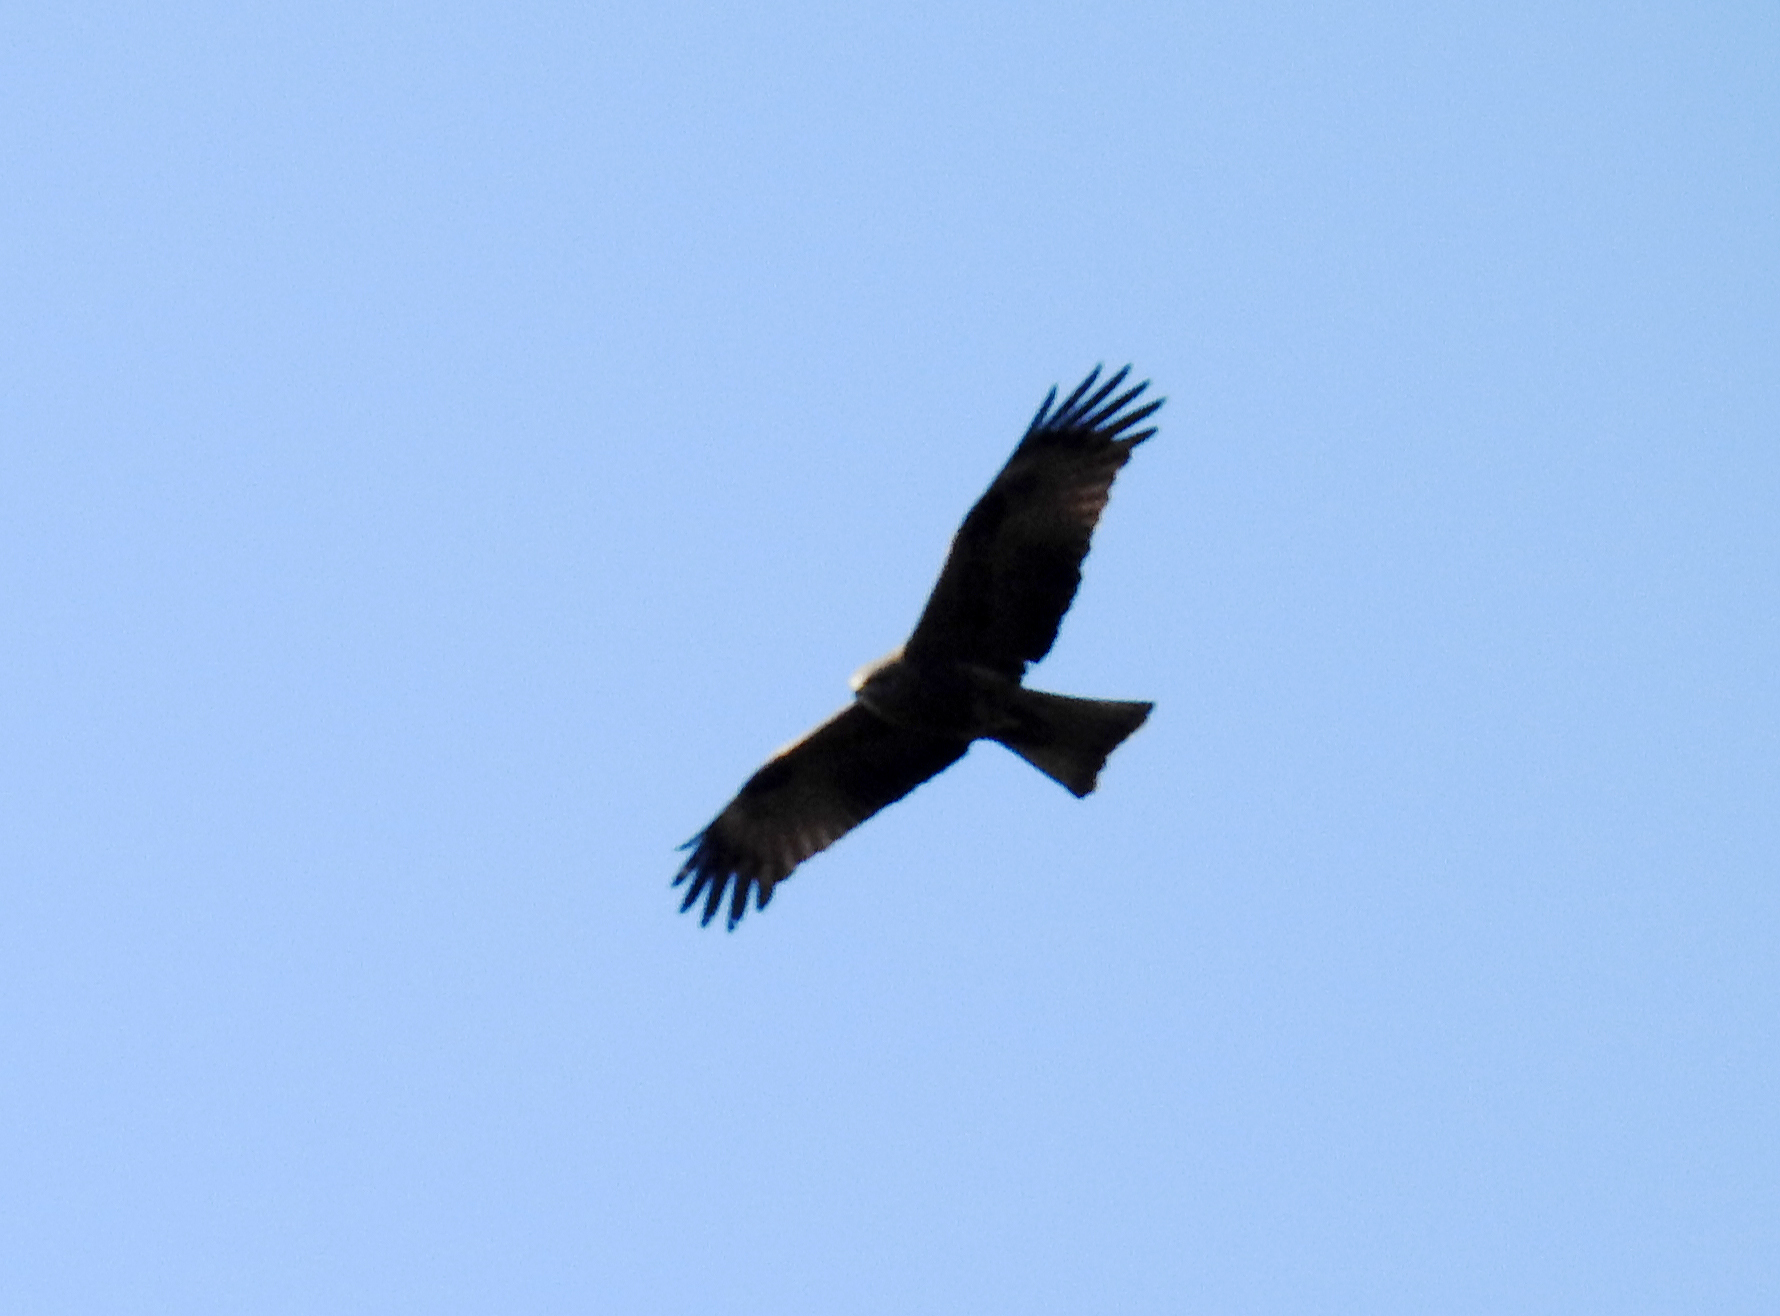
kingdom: Animalia
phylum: Chordata
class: Aves
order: Accipitriformes
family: Accipitridae
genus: Milvus
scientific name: Milvus migrans
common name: Black kite
